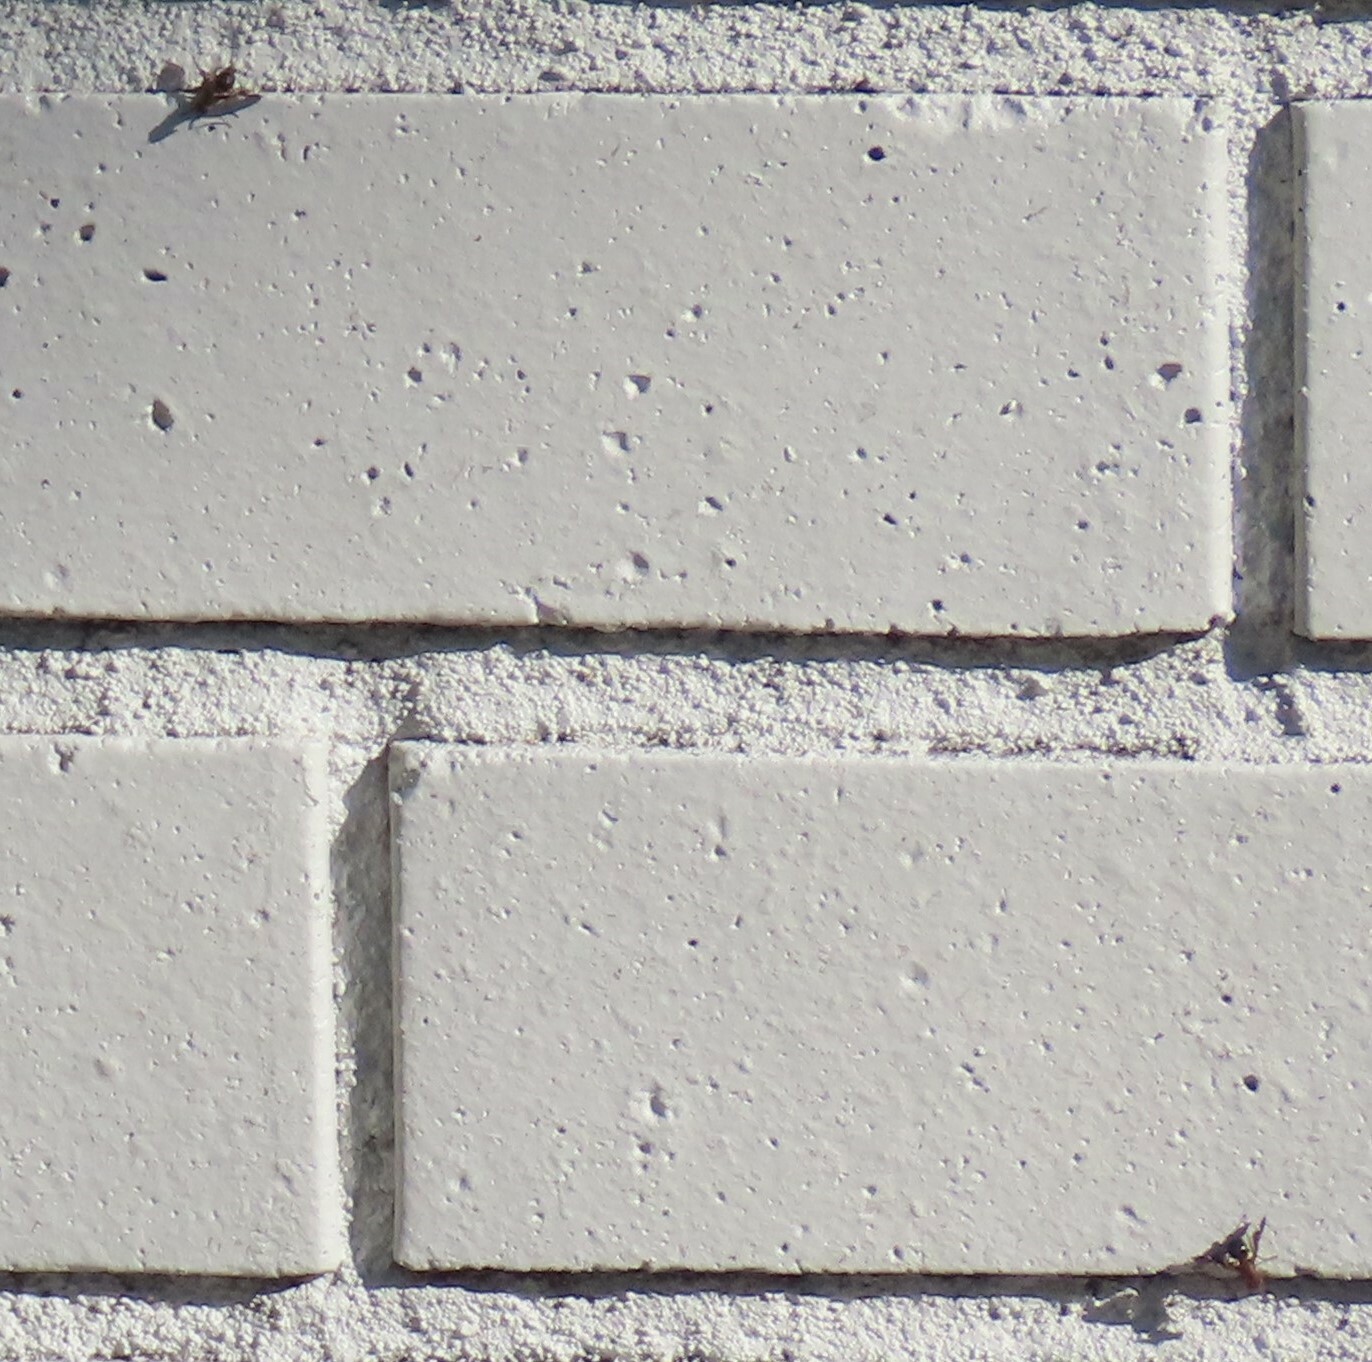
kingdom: Animalia
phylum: Arthropoda
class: Insecta
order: Diptera
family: Ulidiidae
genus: Delphinia
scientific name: Delphinia picta
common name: Common picture-winged fly
